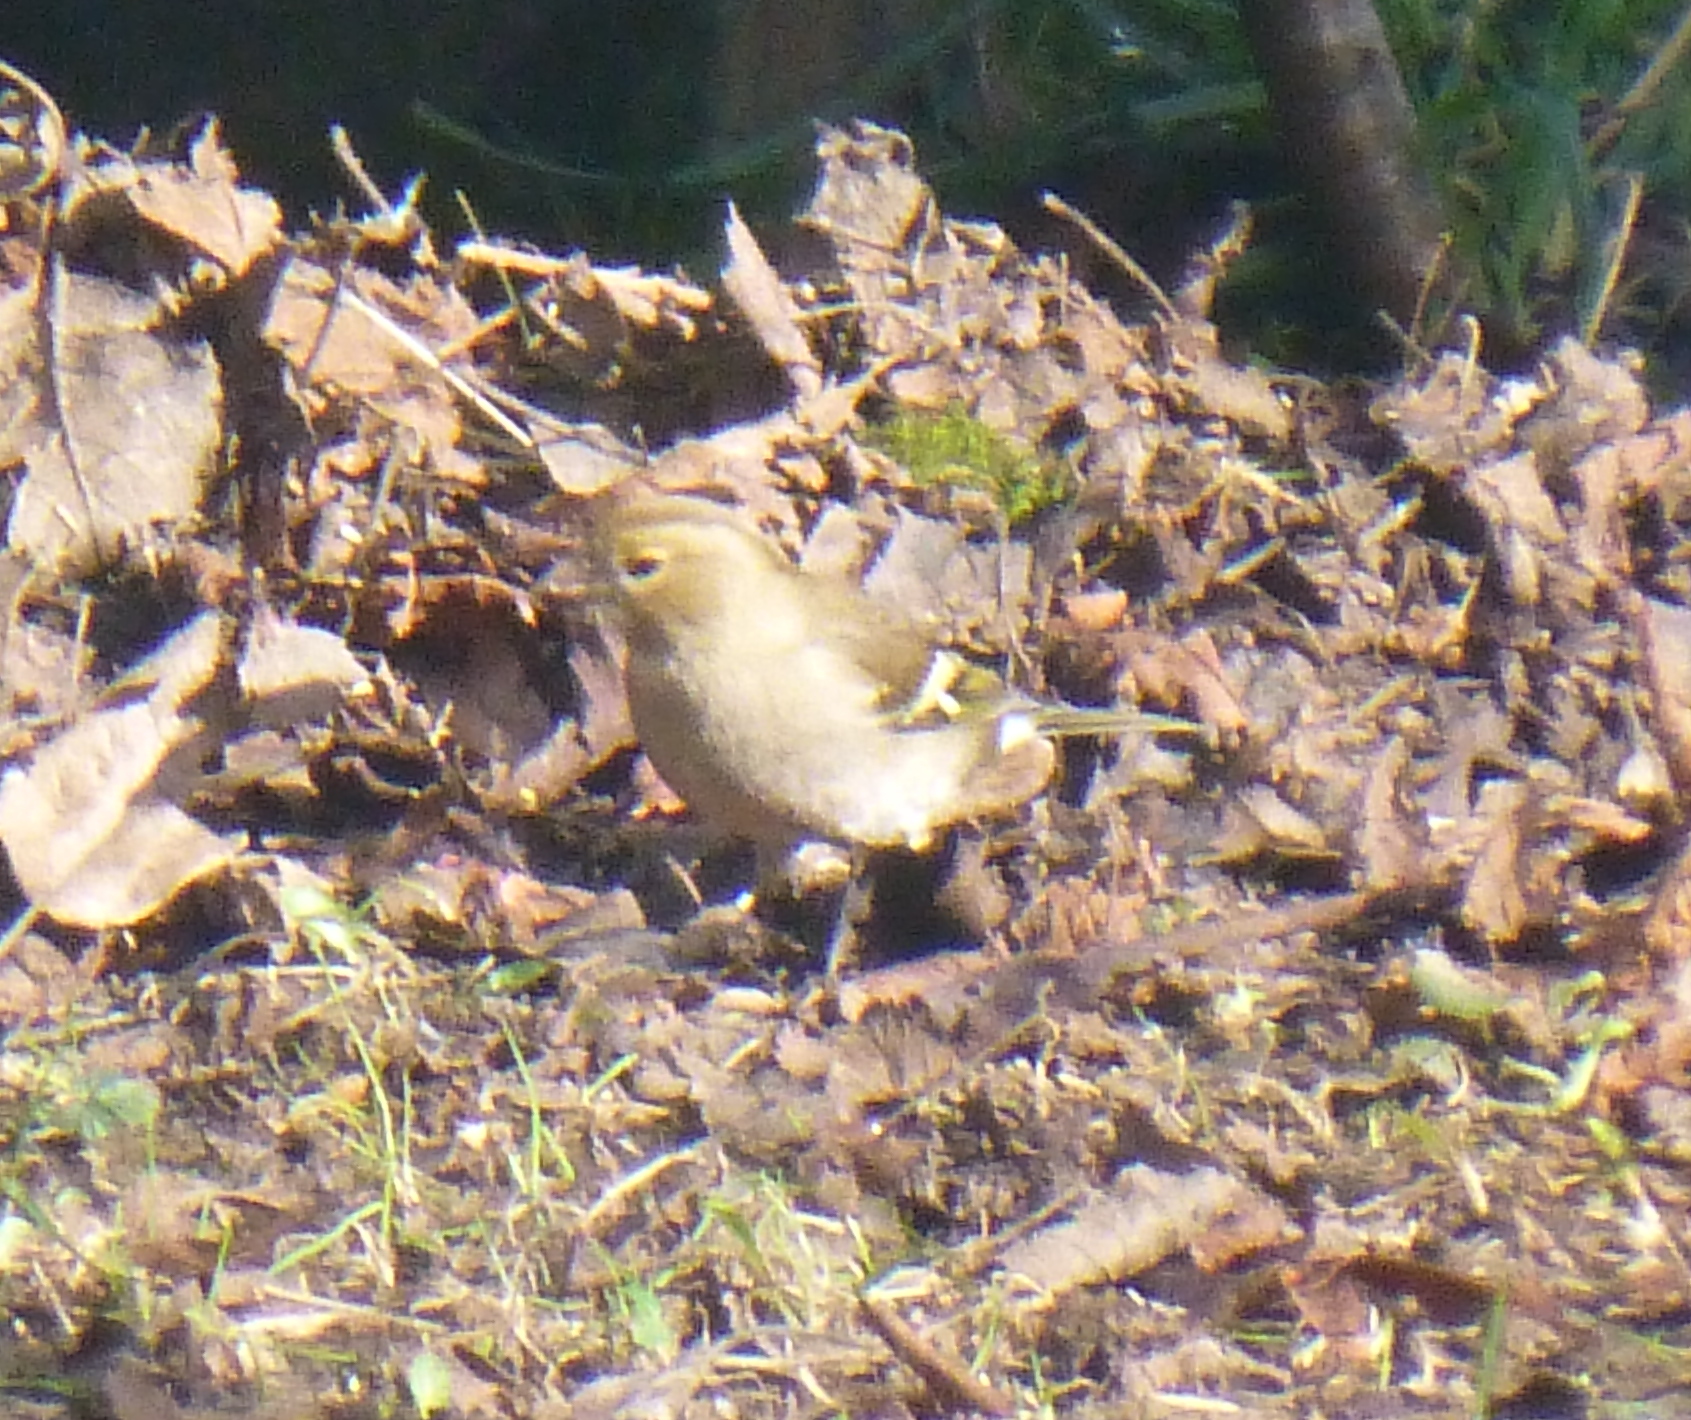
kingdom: Animalia
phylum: Chordata
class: Aves
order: Passeriformes
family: Fringillidae
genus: Fringilla
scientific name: Fringilla coelebs
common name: Common chaffinch
